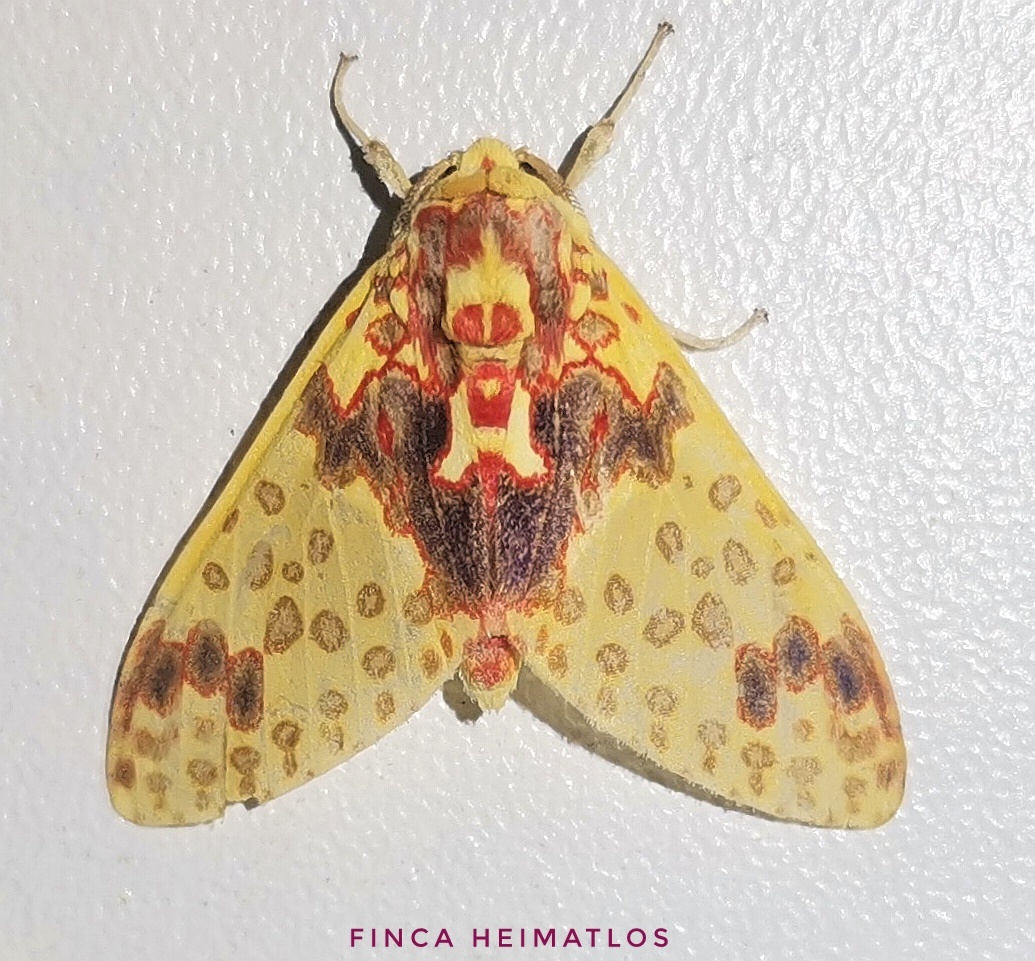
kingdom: Animalia
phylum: Arthropoda
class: Insecta
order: Lepidoptera
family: Erebidae
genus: Amaxia
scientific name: Amaxia pseudodyuna
